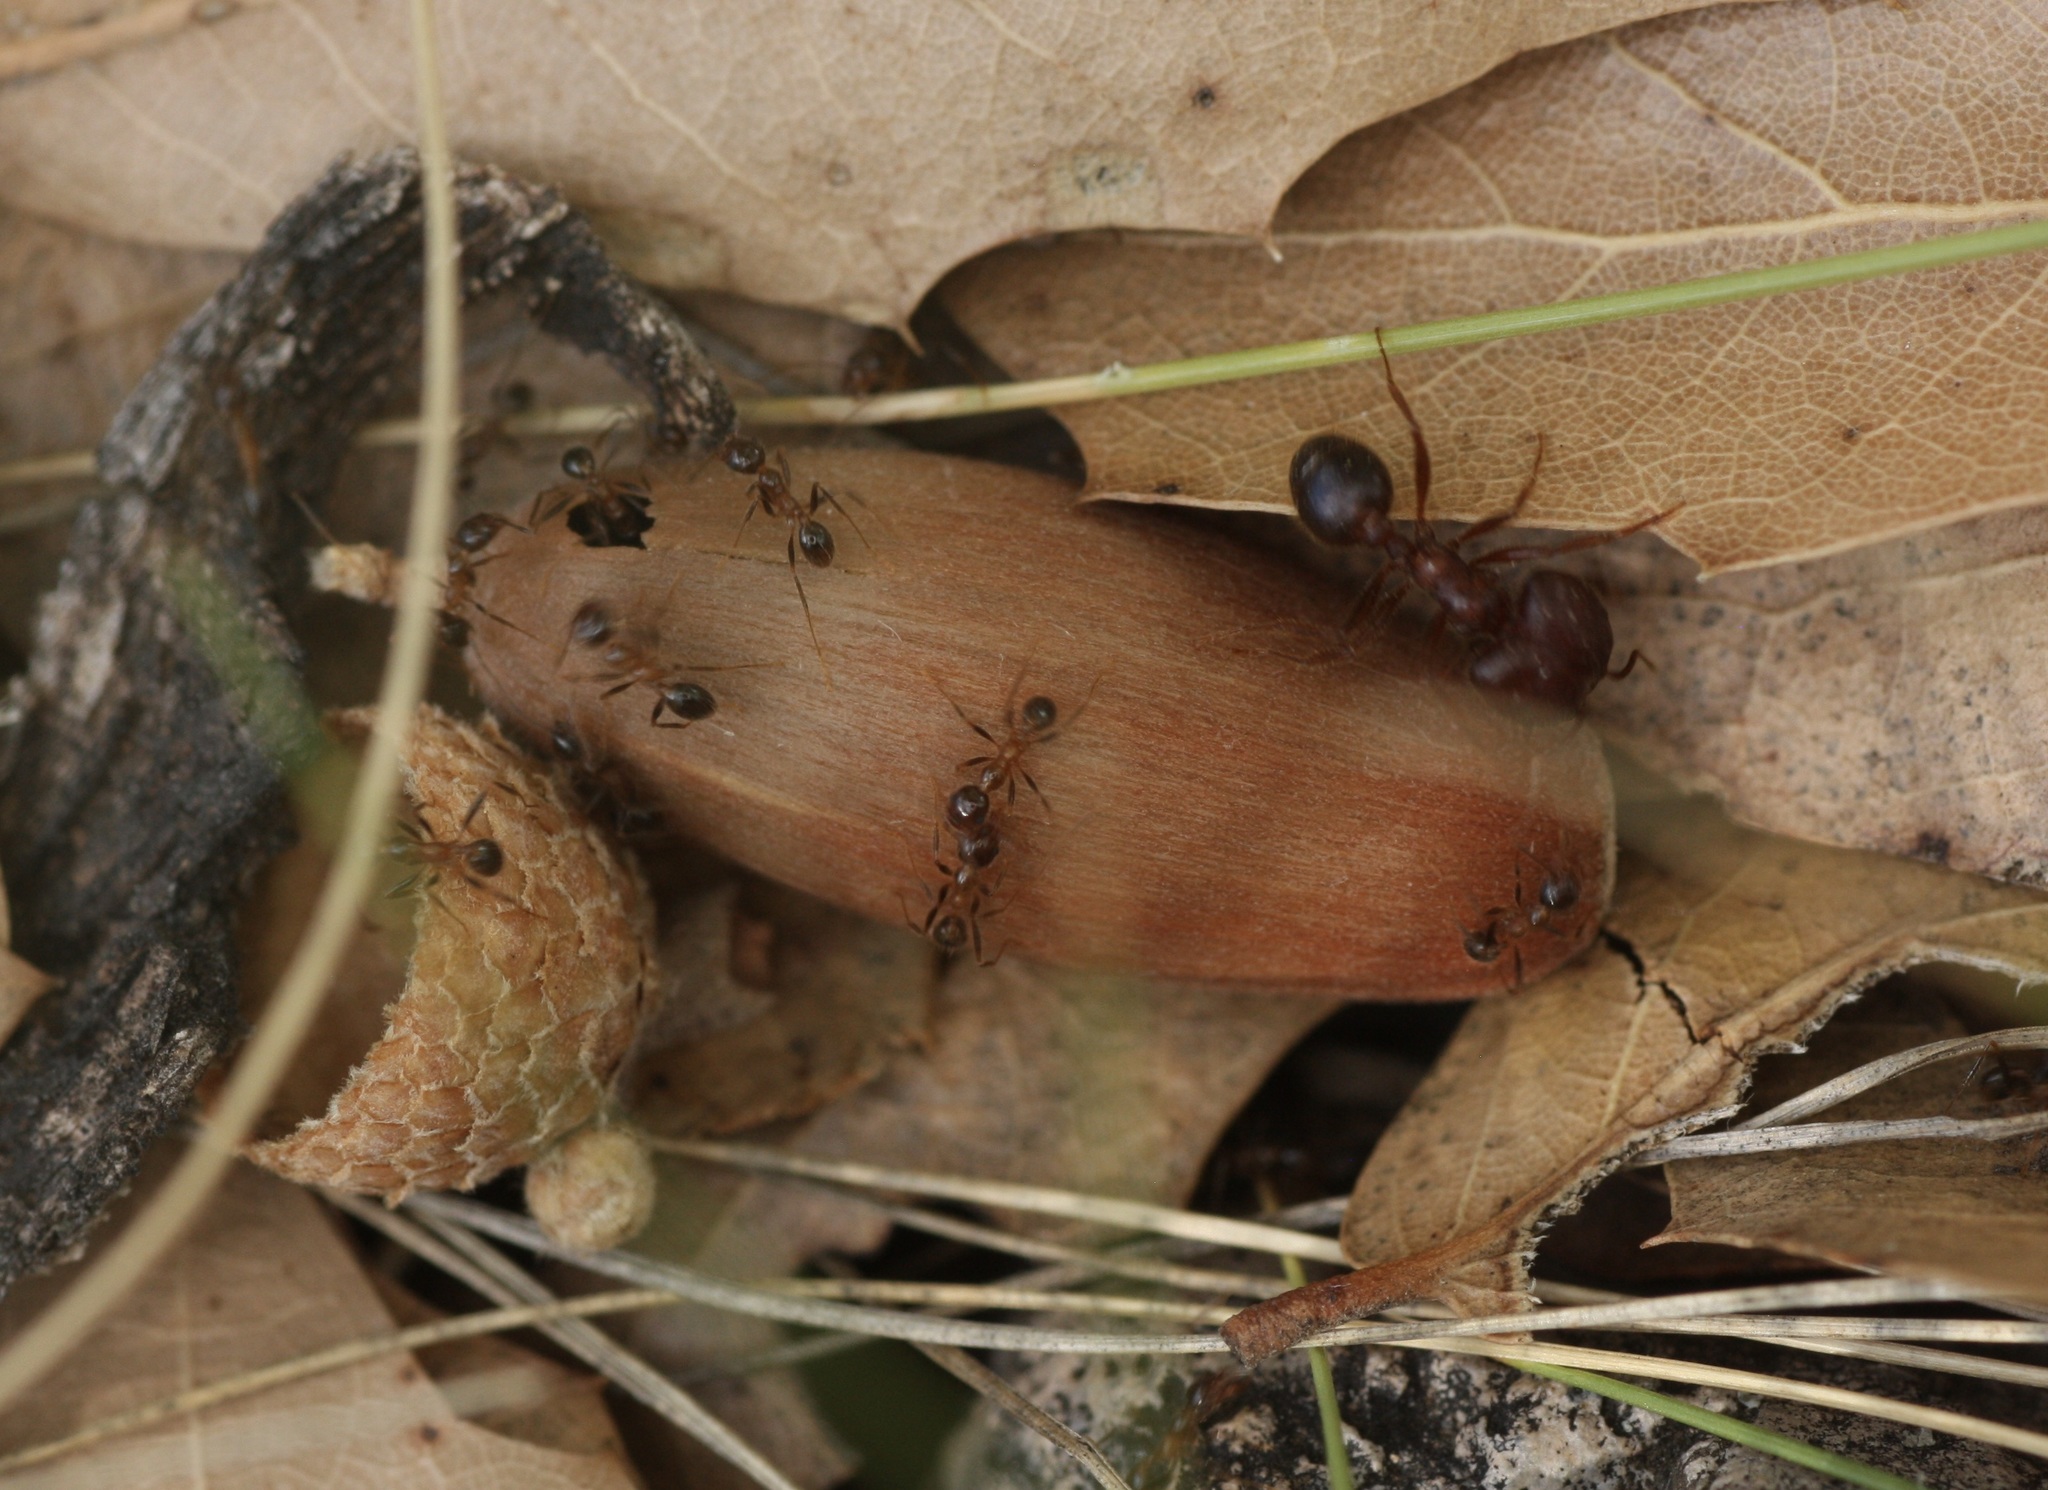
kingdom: Animalia
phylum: Arthropoda
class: Insecta
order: Hymenoptera
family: Formicidae
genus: Pheidole
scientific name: Pheidole obtusospinosa
